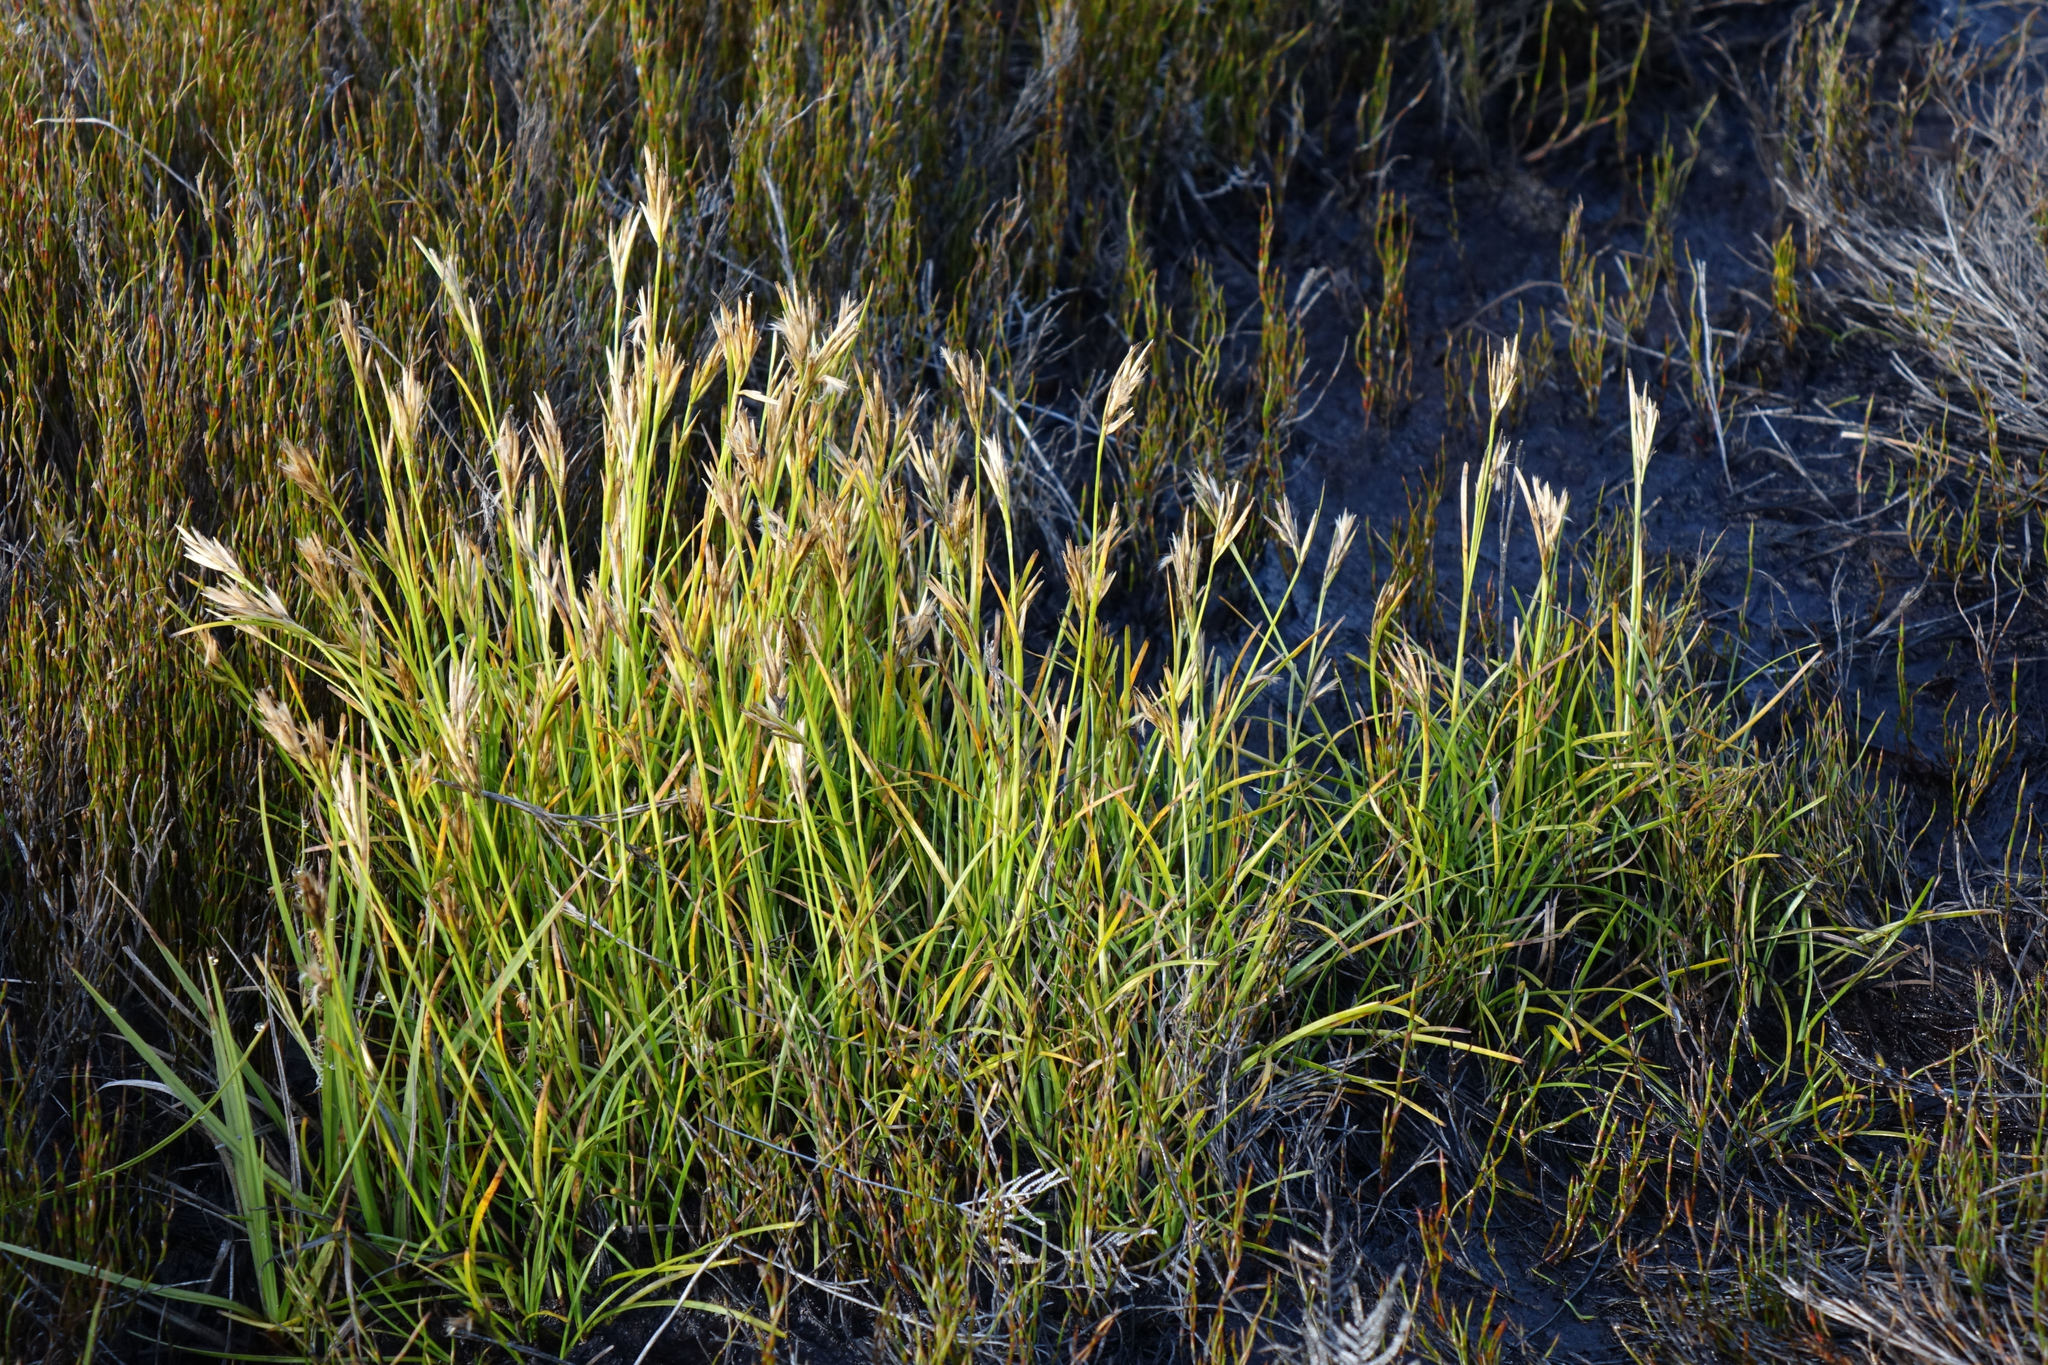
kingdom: Plantae
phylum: Tracheophyta
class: Liliopsida
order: Poales
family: Cyperaceae
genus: Carpha
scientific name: Carpha alpina
